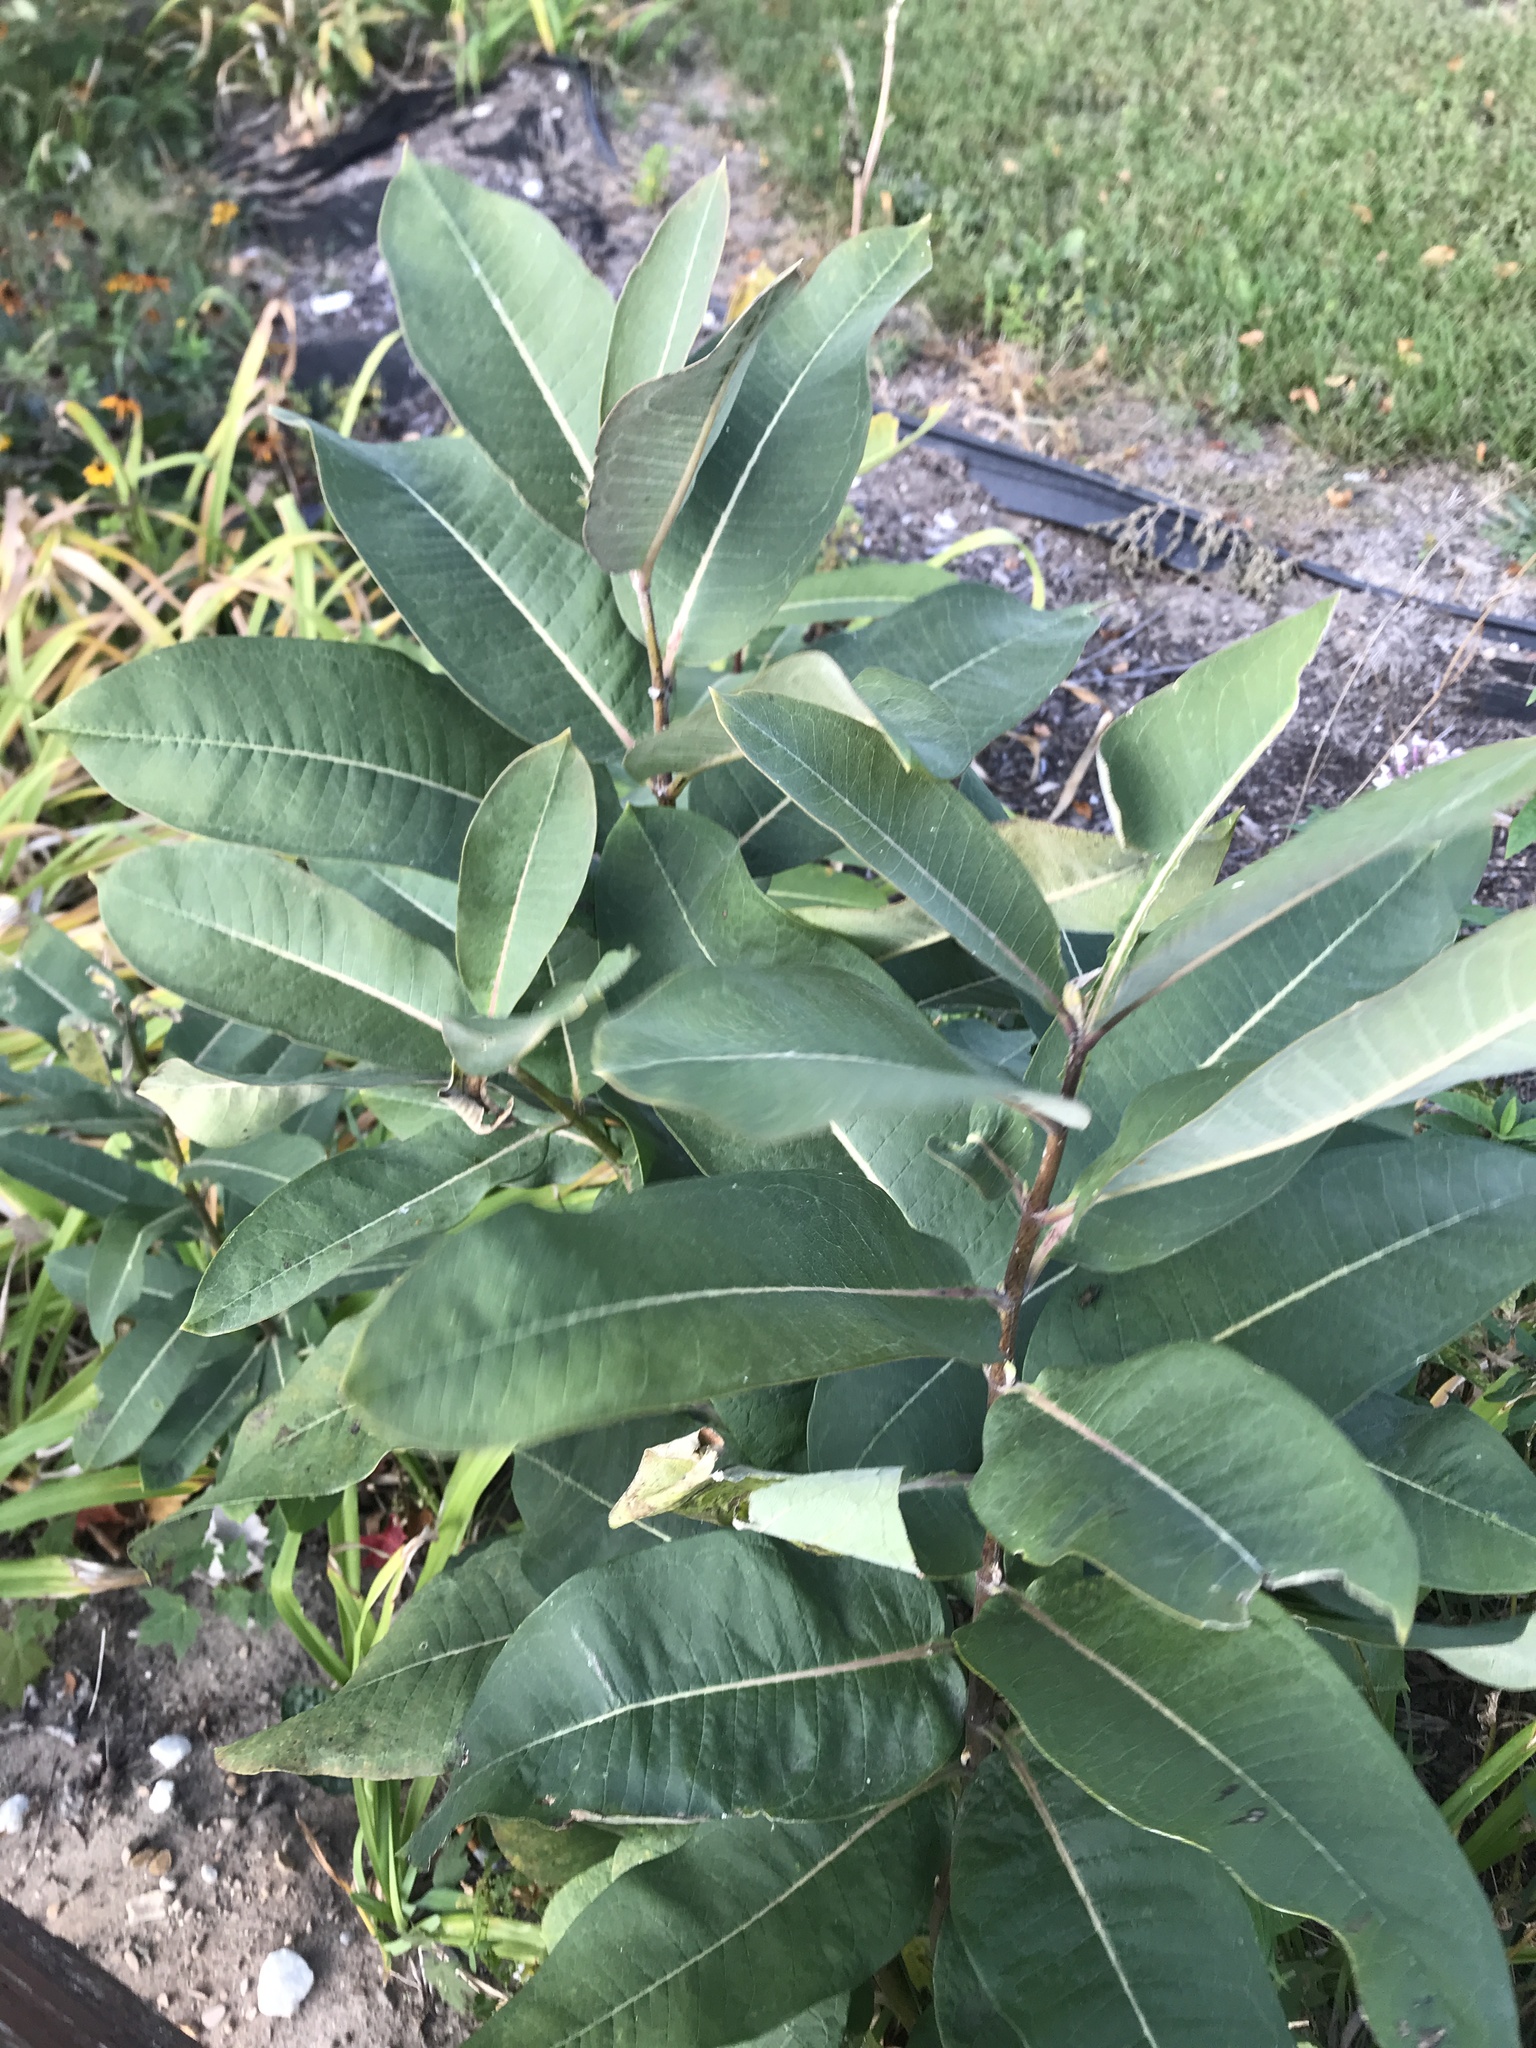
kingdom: Plantae
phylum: Tracheophyta
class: Magnoliopsida
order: Gentianales
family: Apocynaceae
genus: Asclepias
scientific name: Asclepias syriaca
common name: Common milkweed
